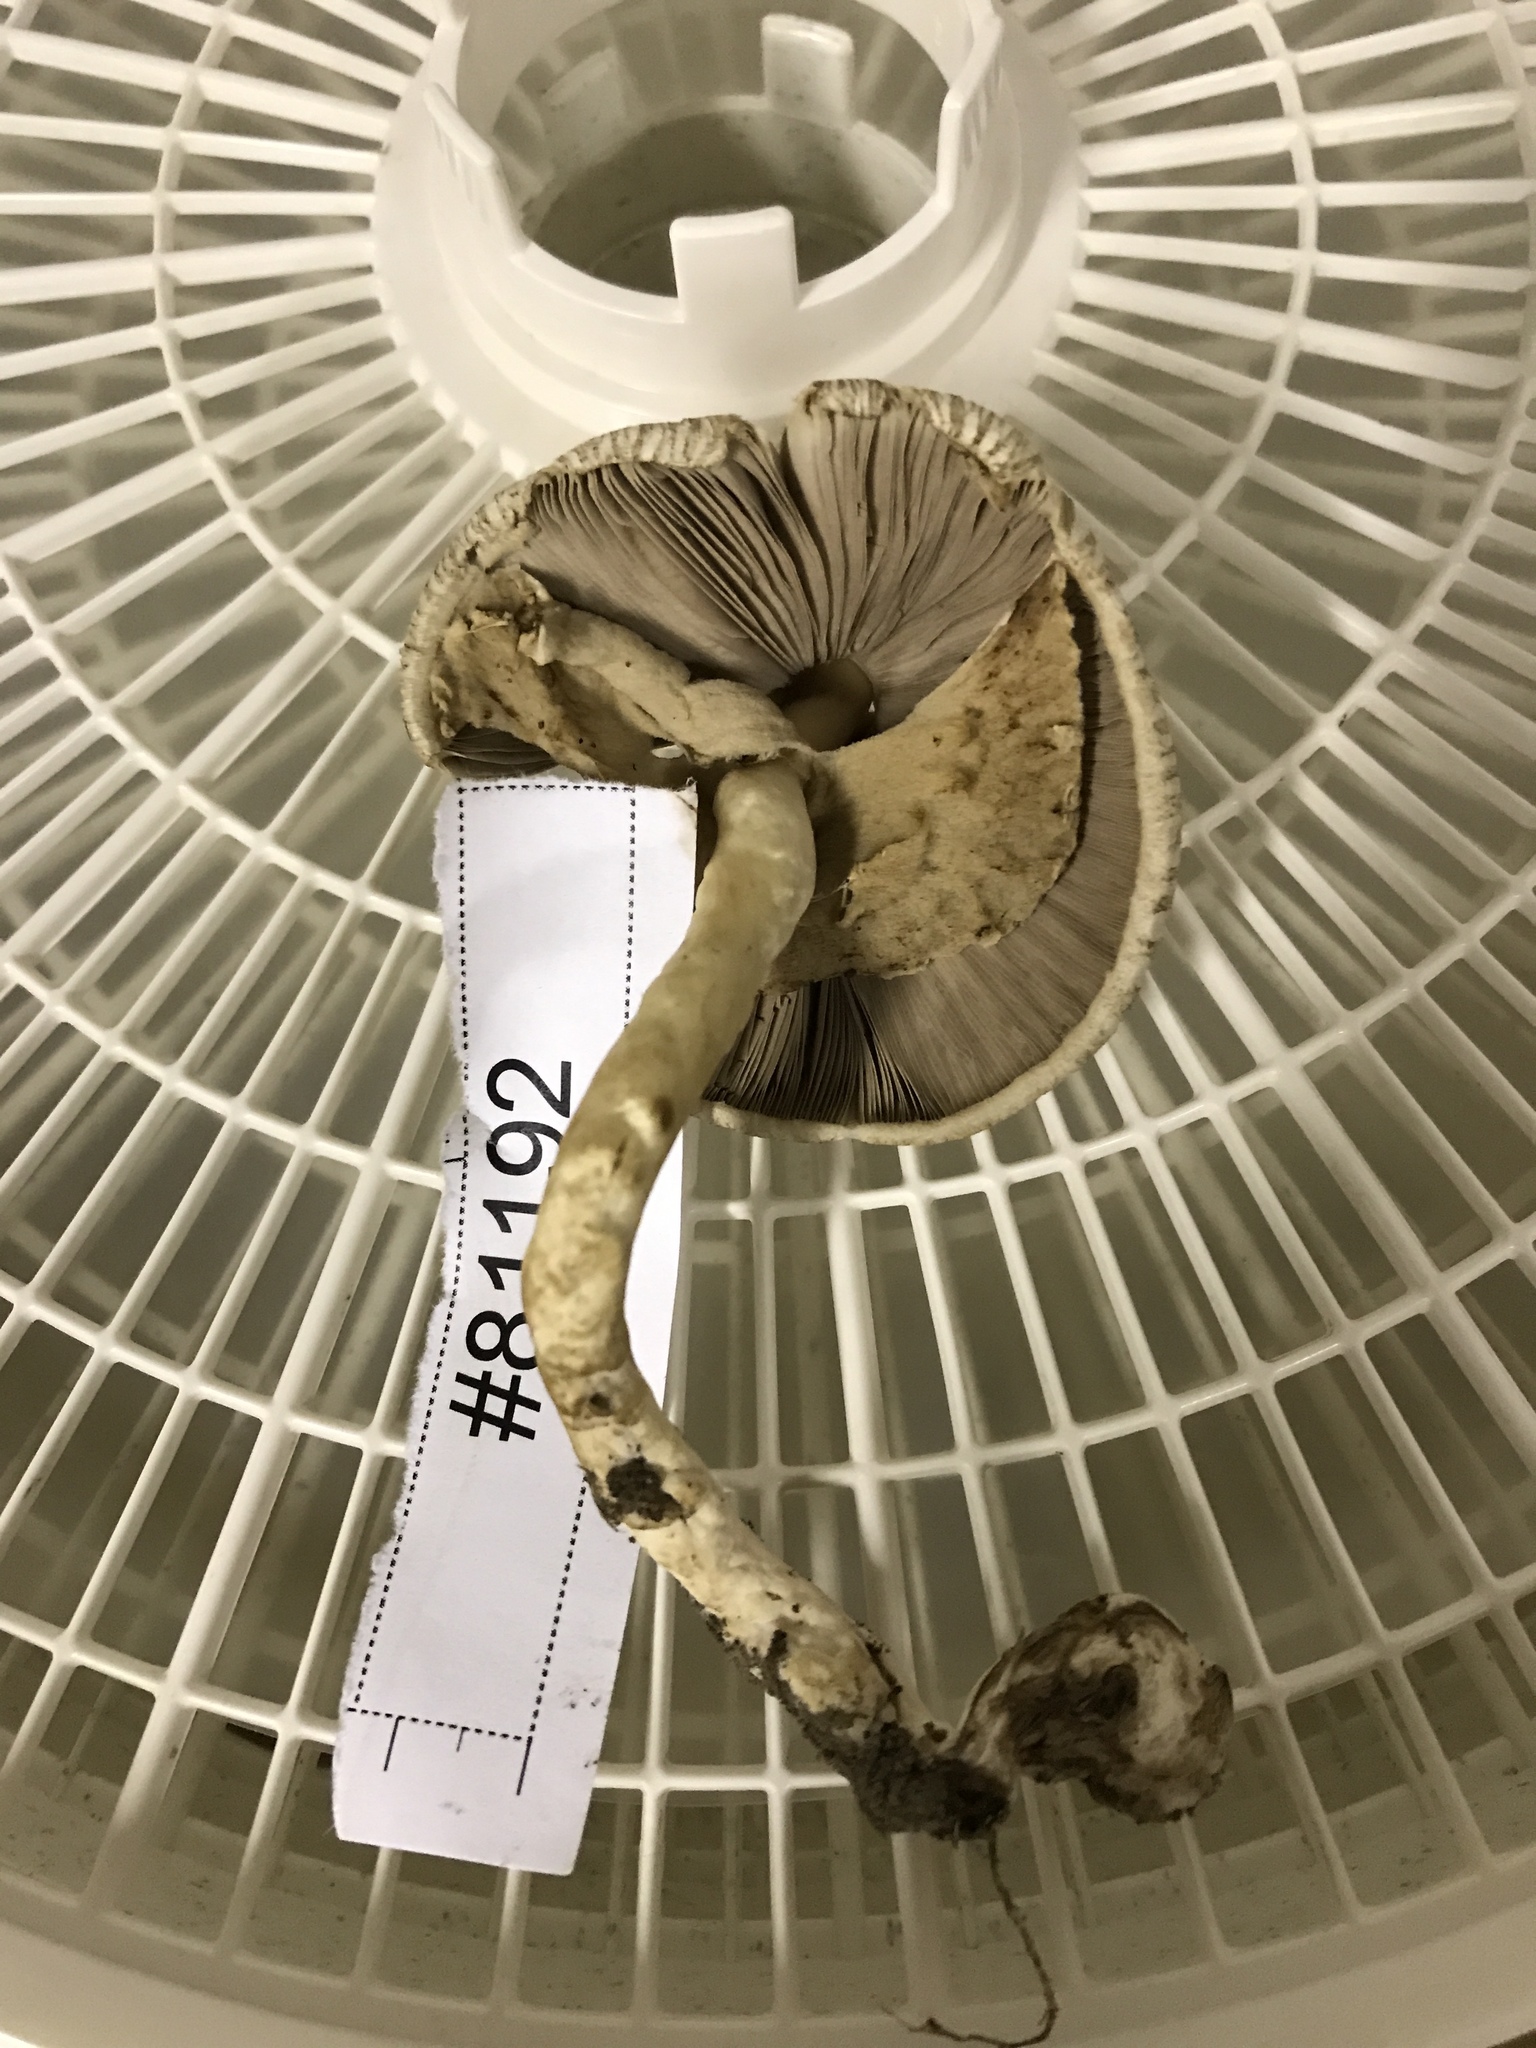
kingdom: Fungi
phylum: Basidiomycota
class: Agaricomycetes
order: Agaricales
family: Agaricaceae
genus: Agaricus
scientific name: Agaricus pocillator
